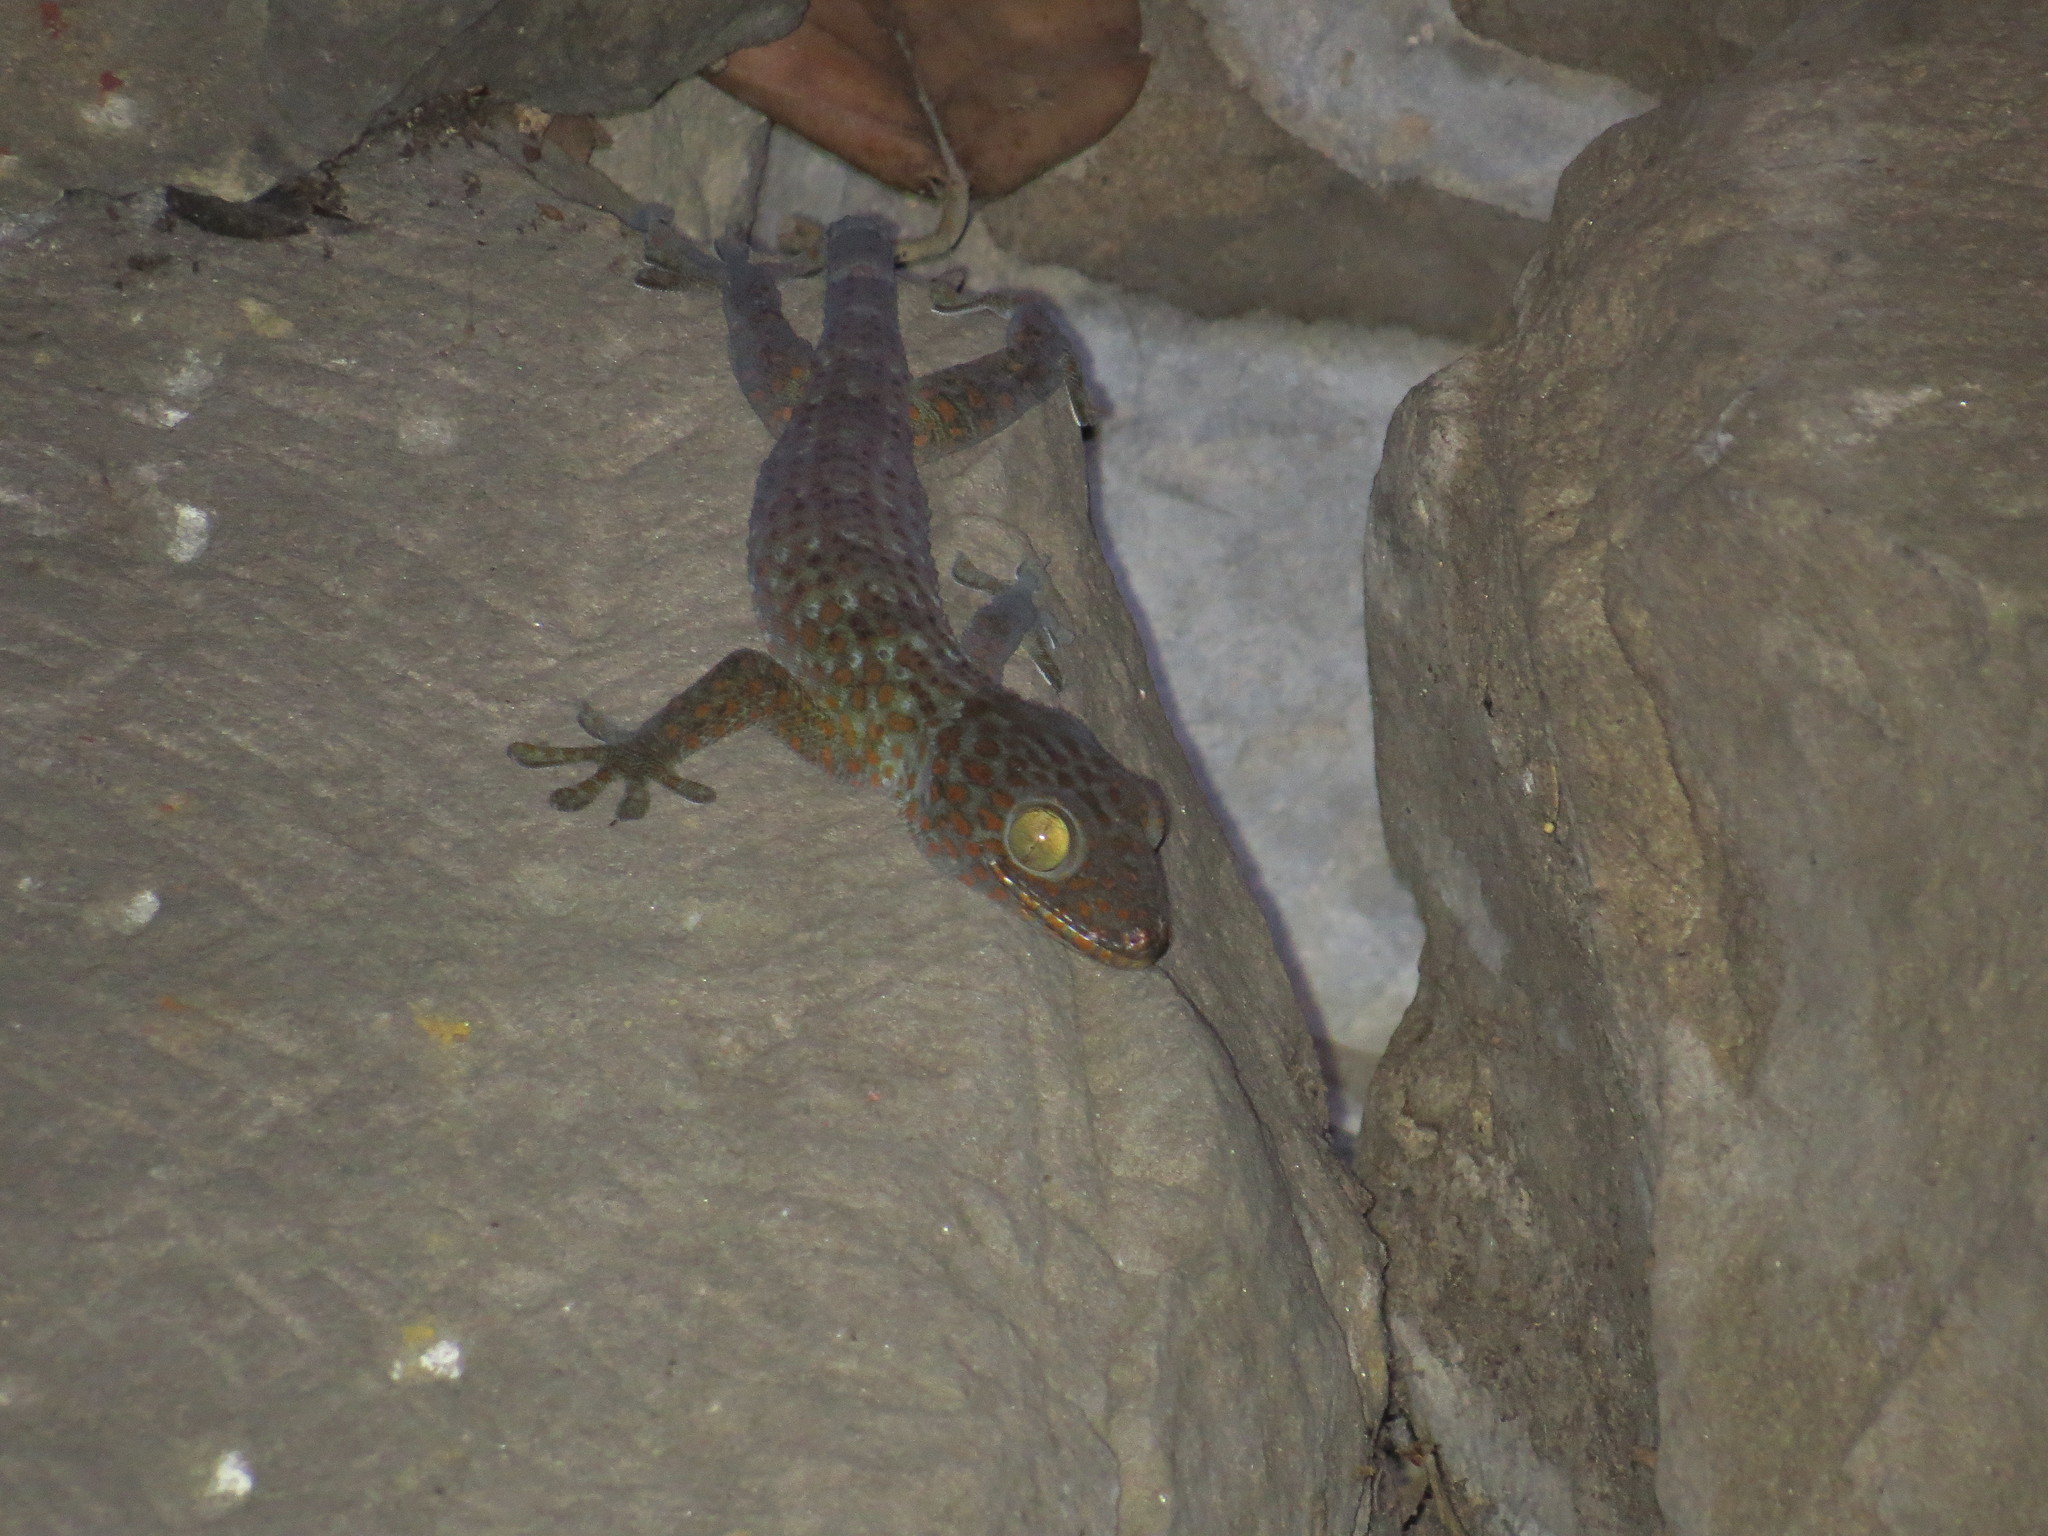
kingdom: Animalia
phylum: Chordata
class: Squamata
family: Gekkonidae
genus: Gekko
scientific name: Gekko gecko
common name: Tokay gecko
